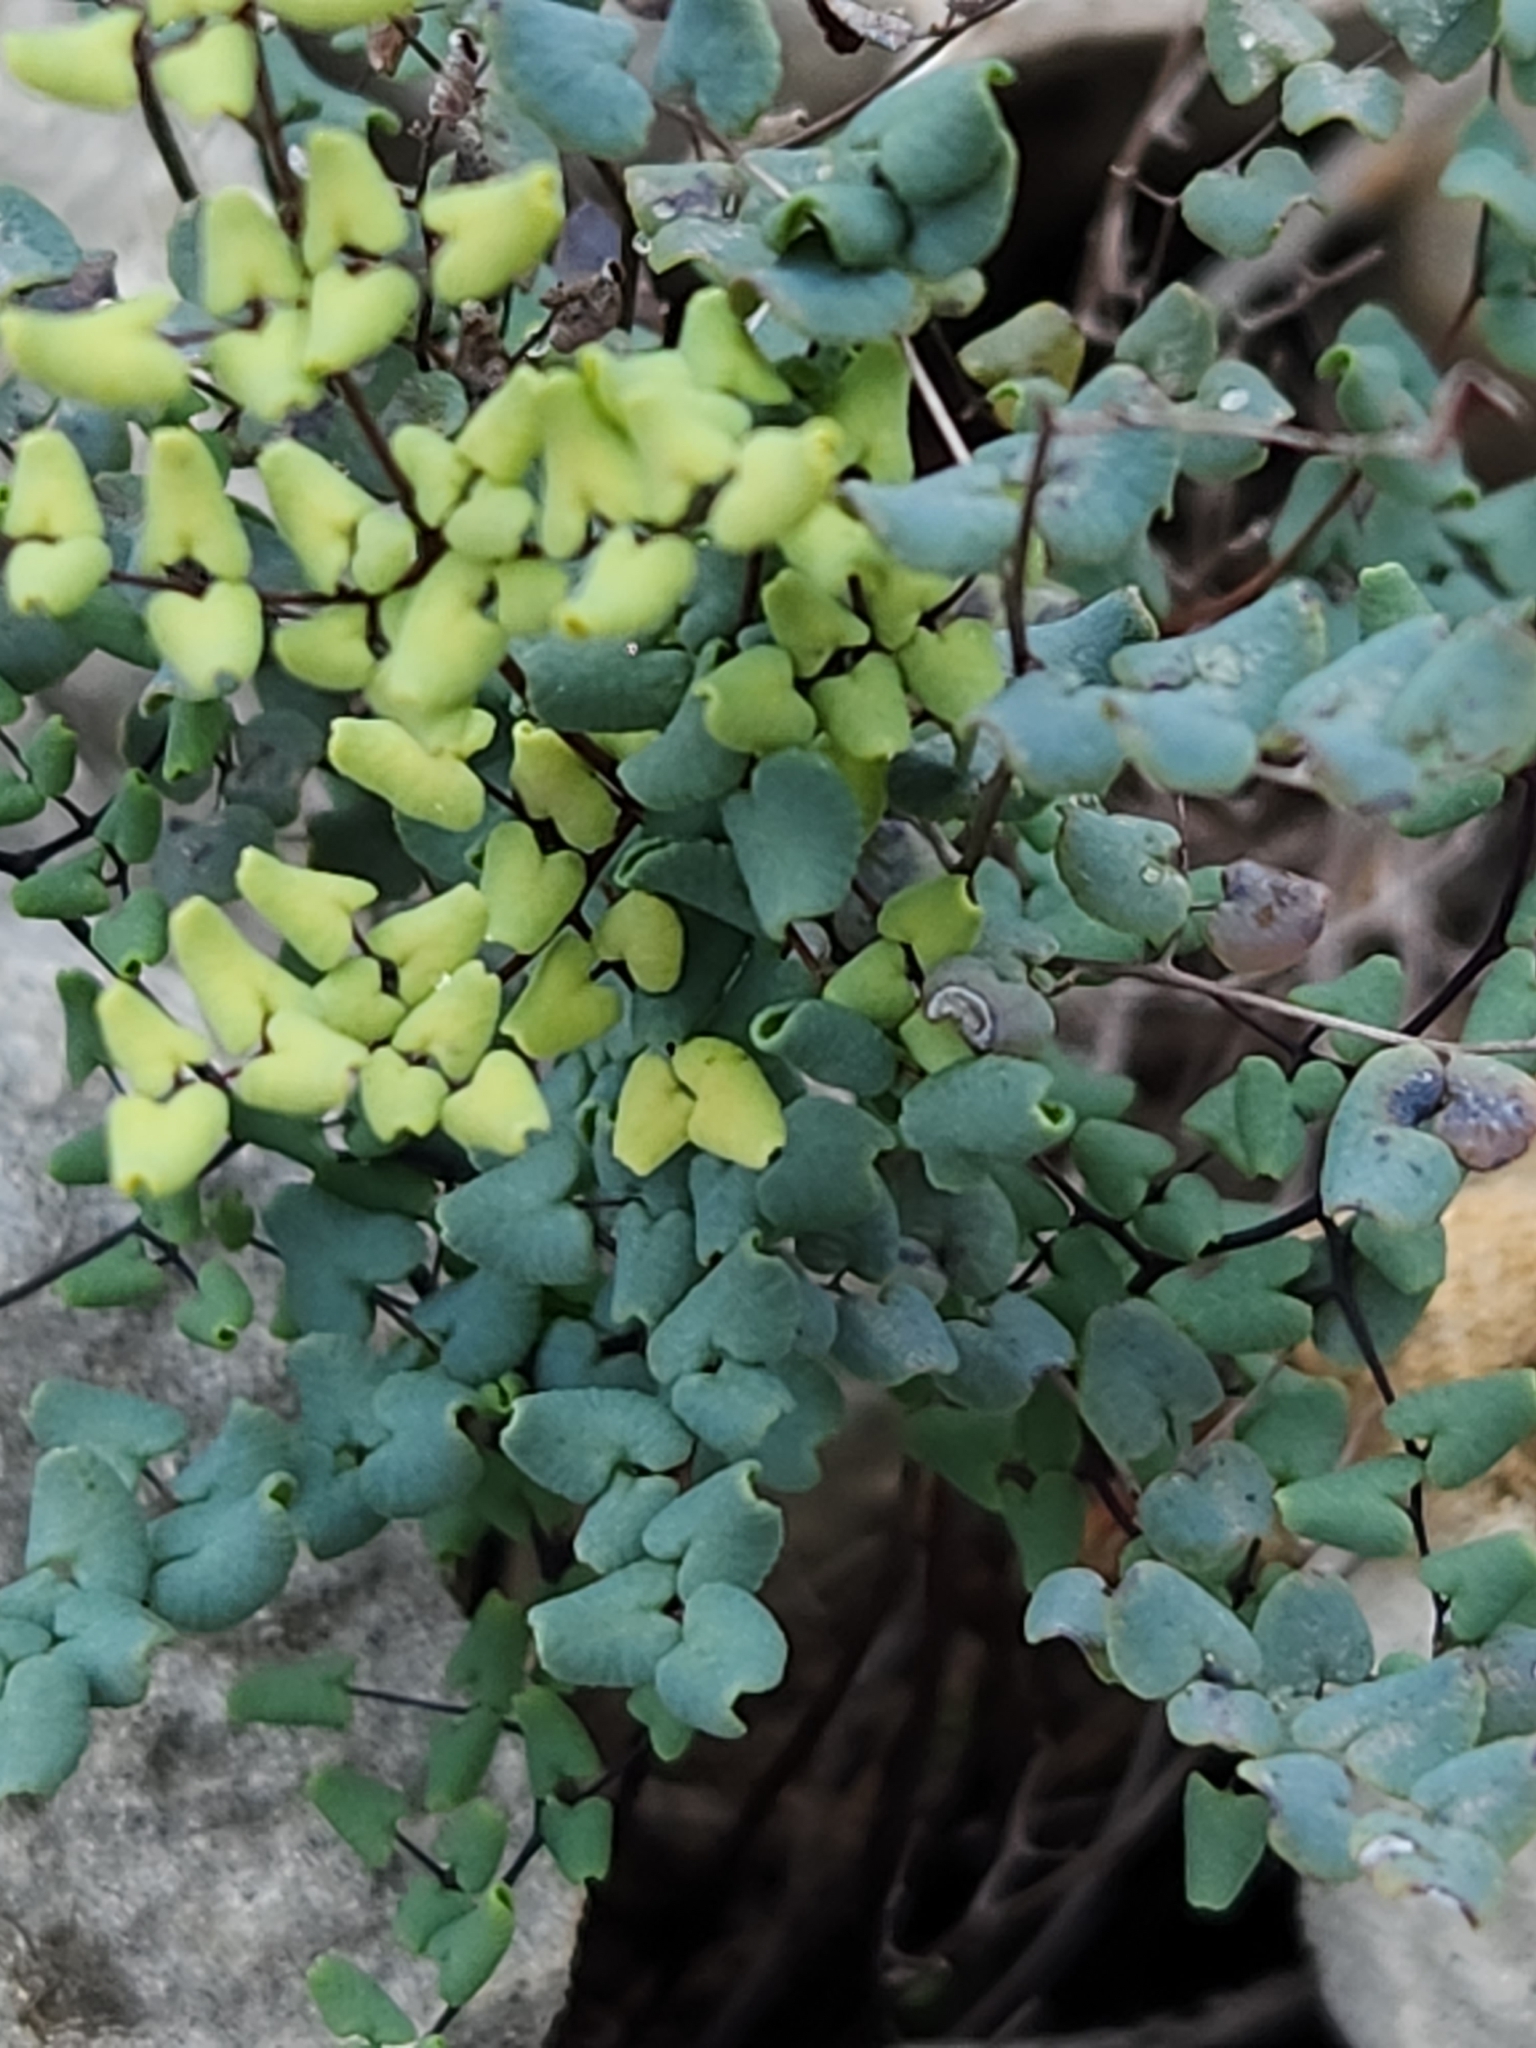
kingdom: Plantae
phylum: Tracheophyta
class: Polypodiopsida
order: Polypodiales
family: Pteridaceae
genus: Argyrochosma
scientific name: Argyrochosma microphylla
